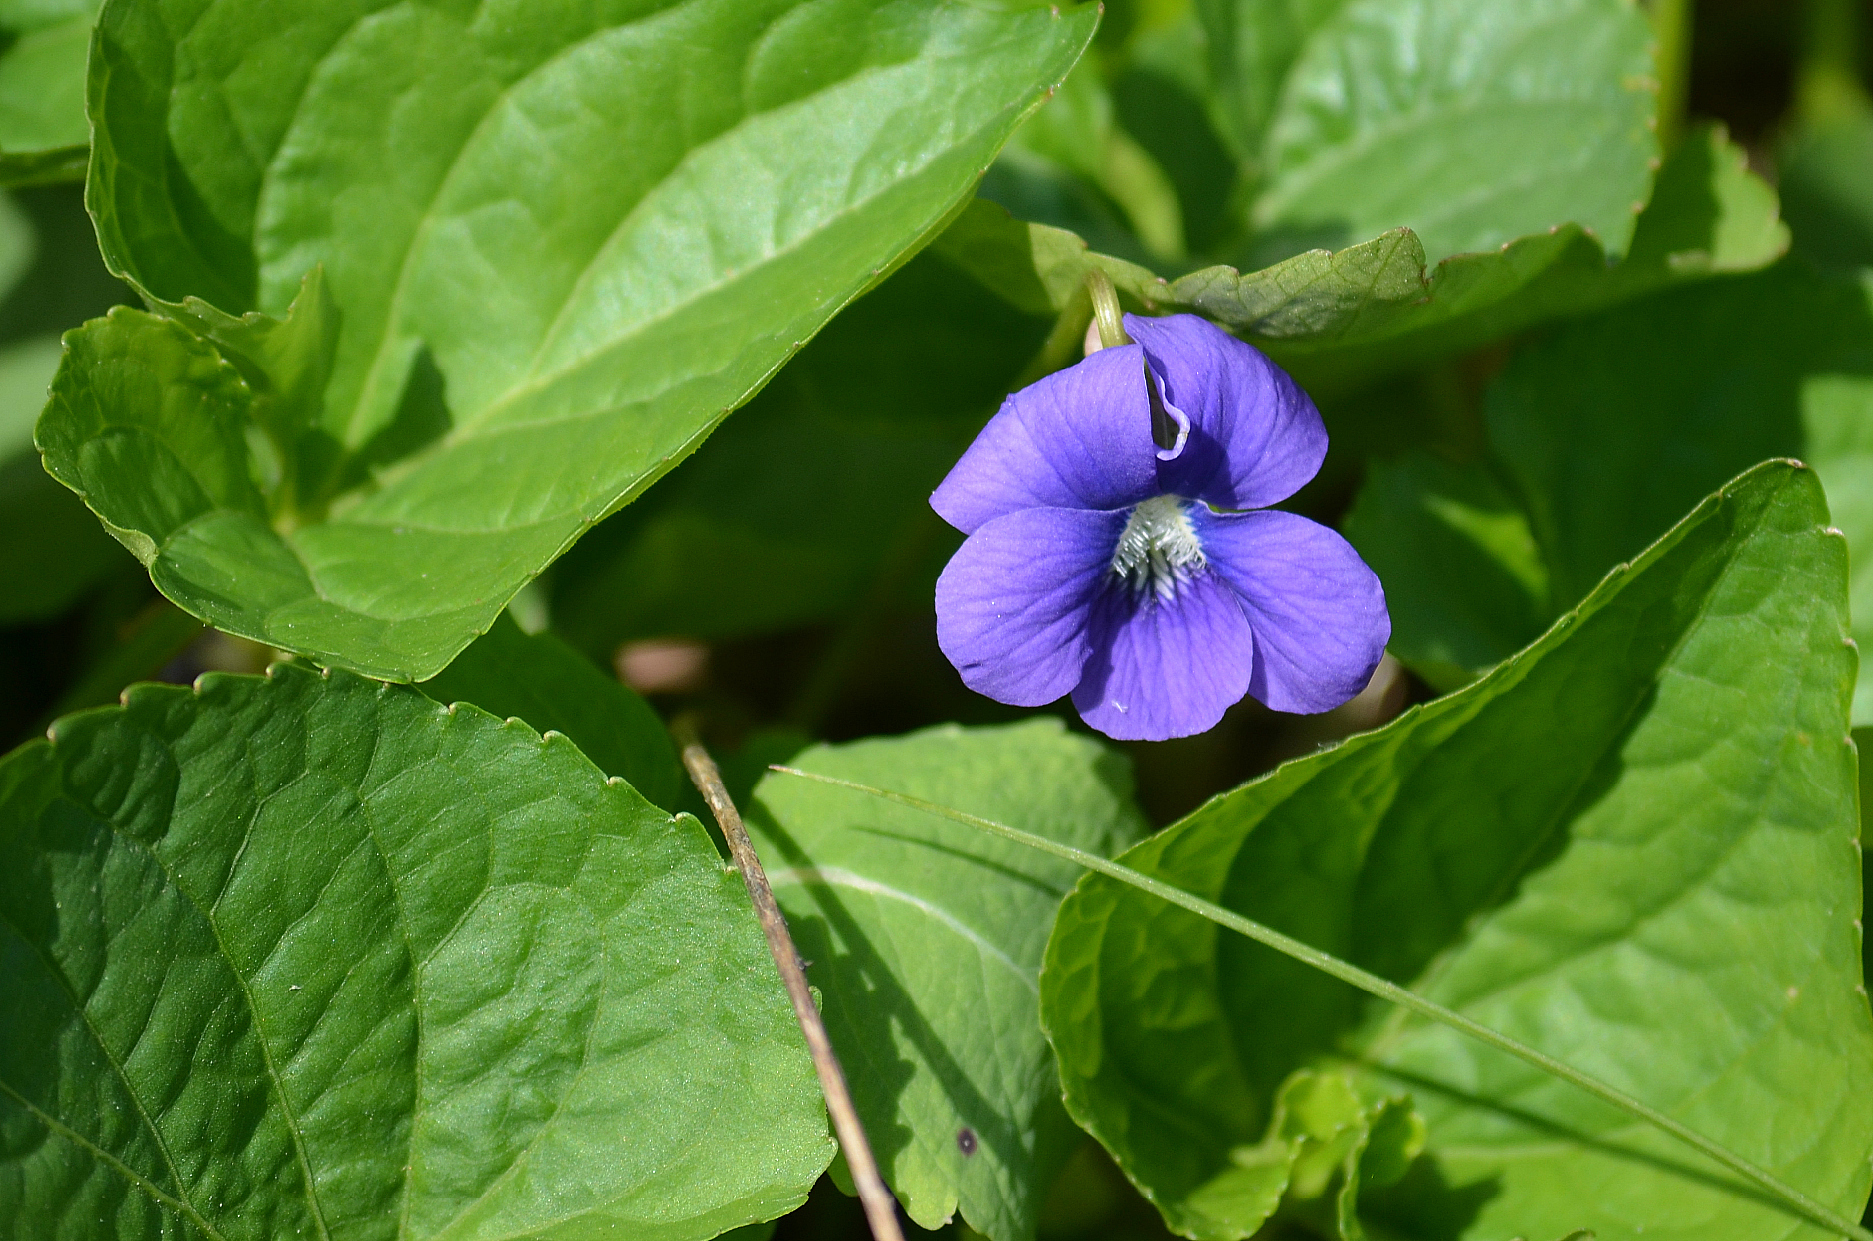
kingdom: Plantae
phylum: Tracheophyta
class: Magnoliopsida
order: Malpighiales
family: Violaceae
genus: Viola
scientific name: Viola sororia
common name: Dooryard violet
